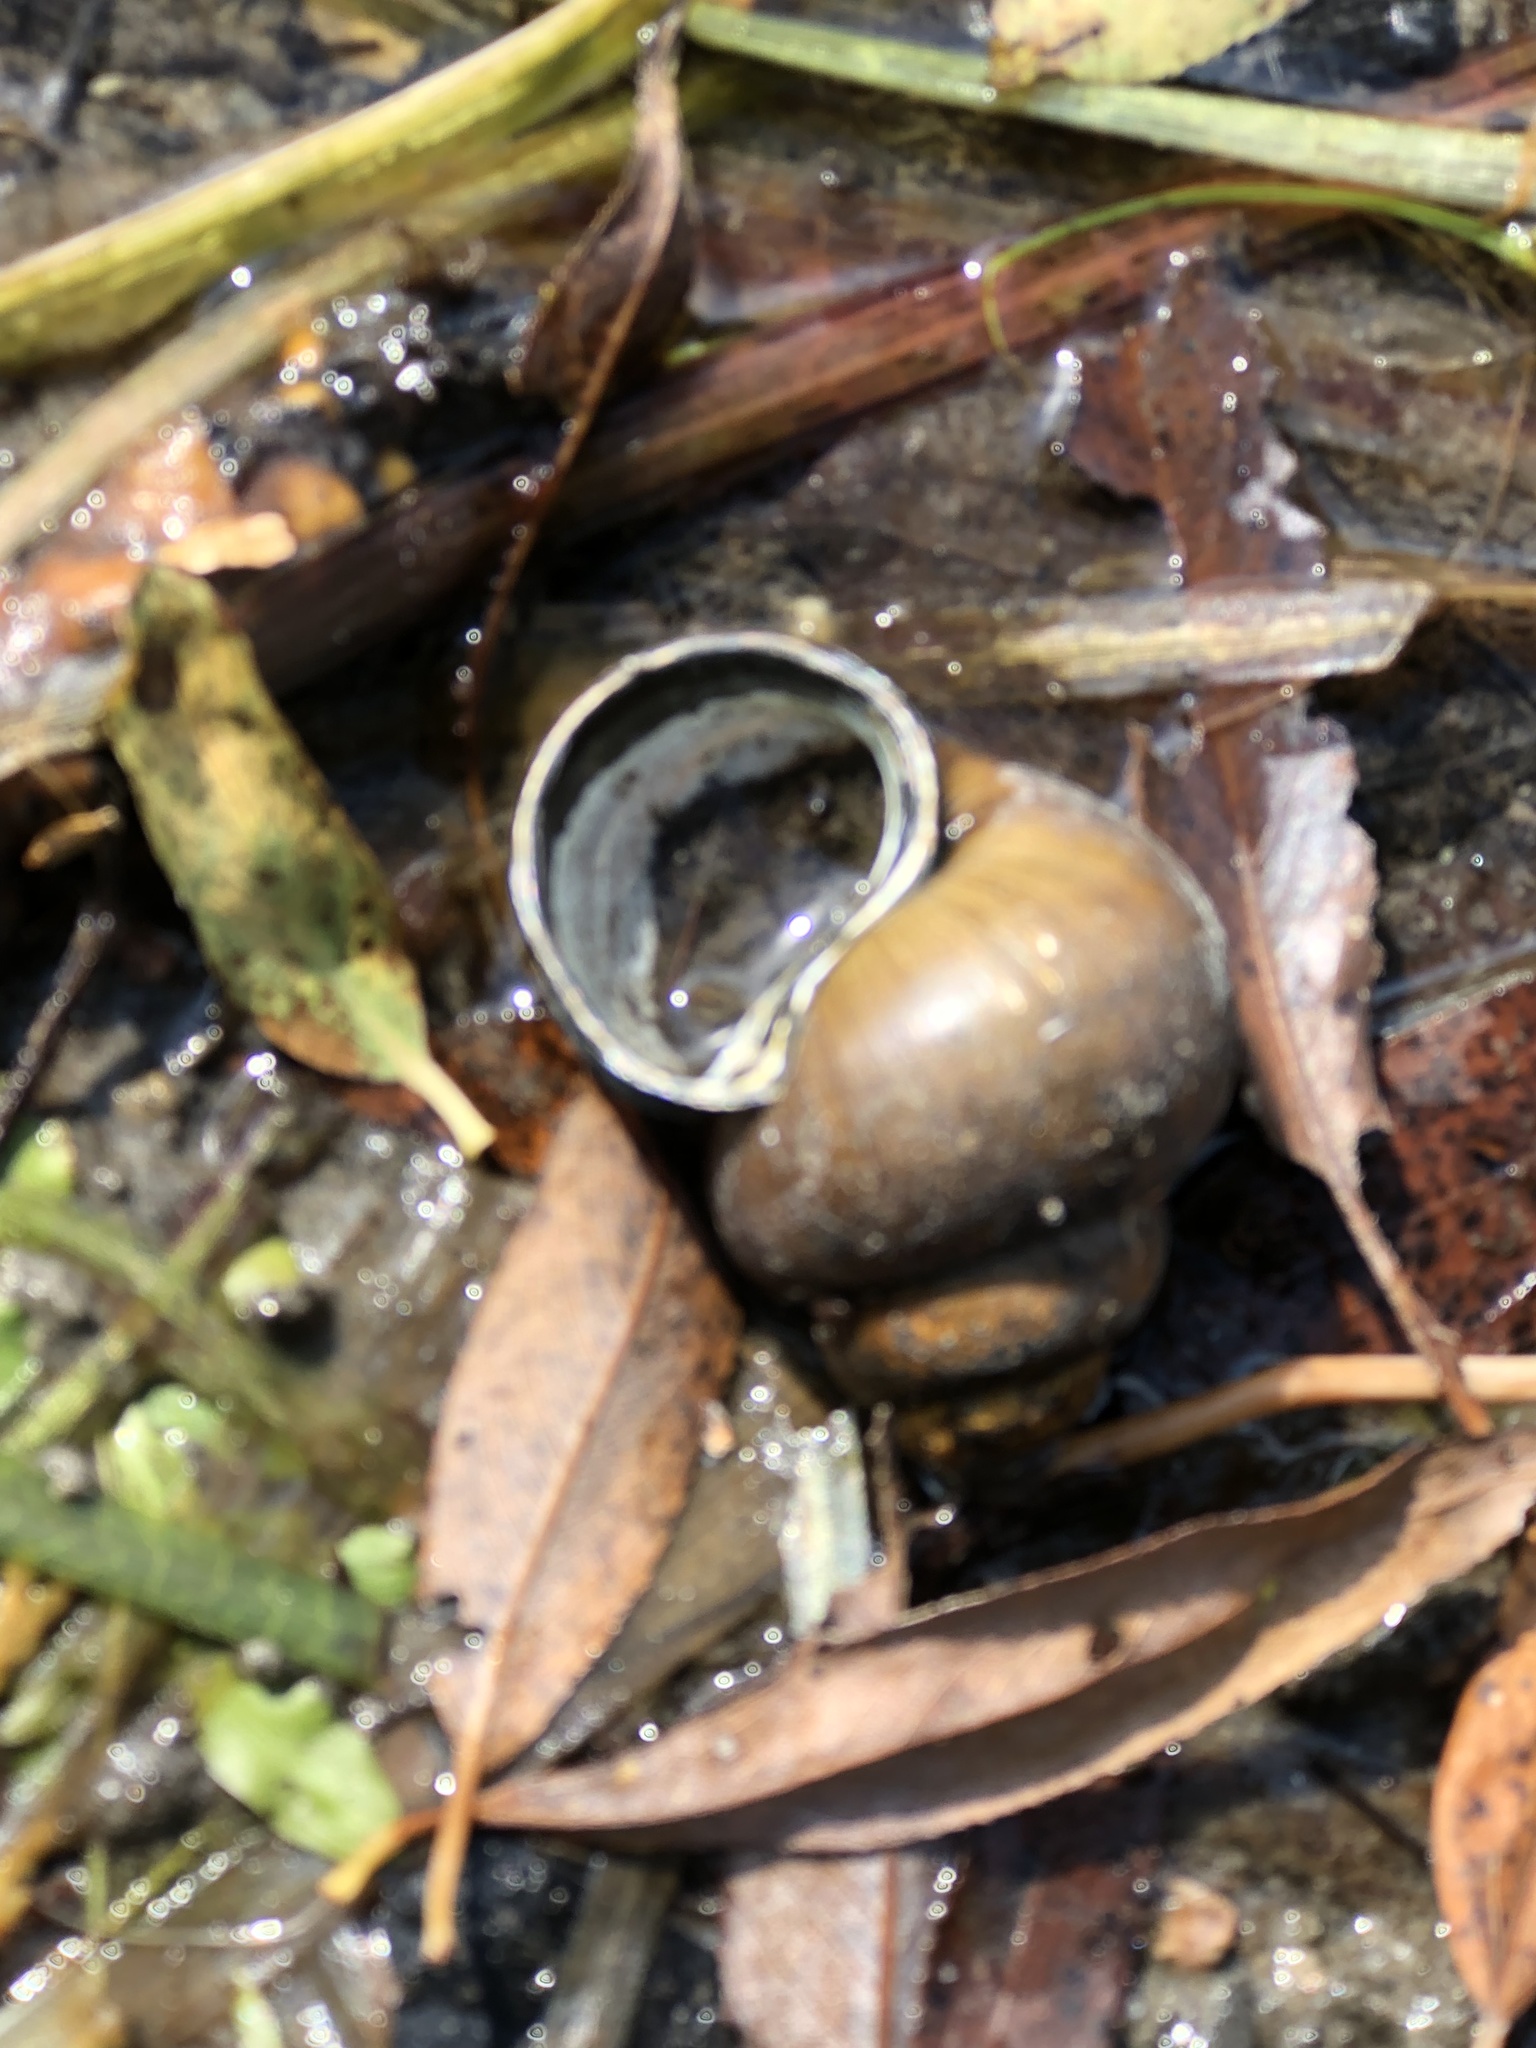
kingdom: Animalia
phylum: Mollusca
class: Gastropoda
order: Architaenioglossa
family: Viviparidae
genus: Cipangopaludina
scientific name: Cipangopaludina chinensis
